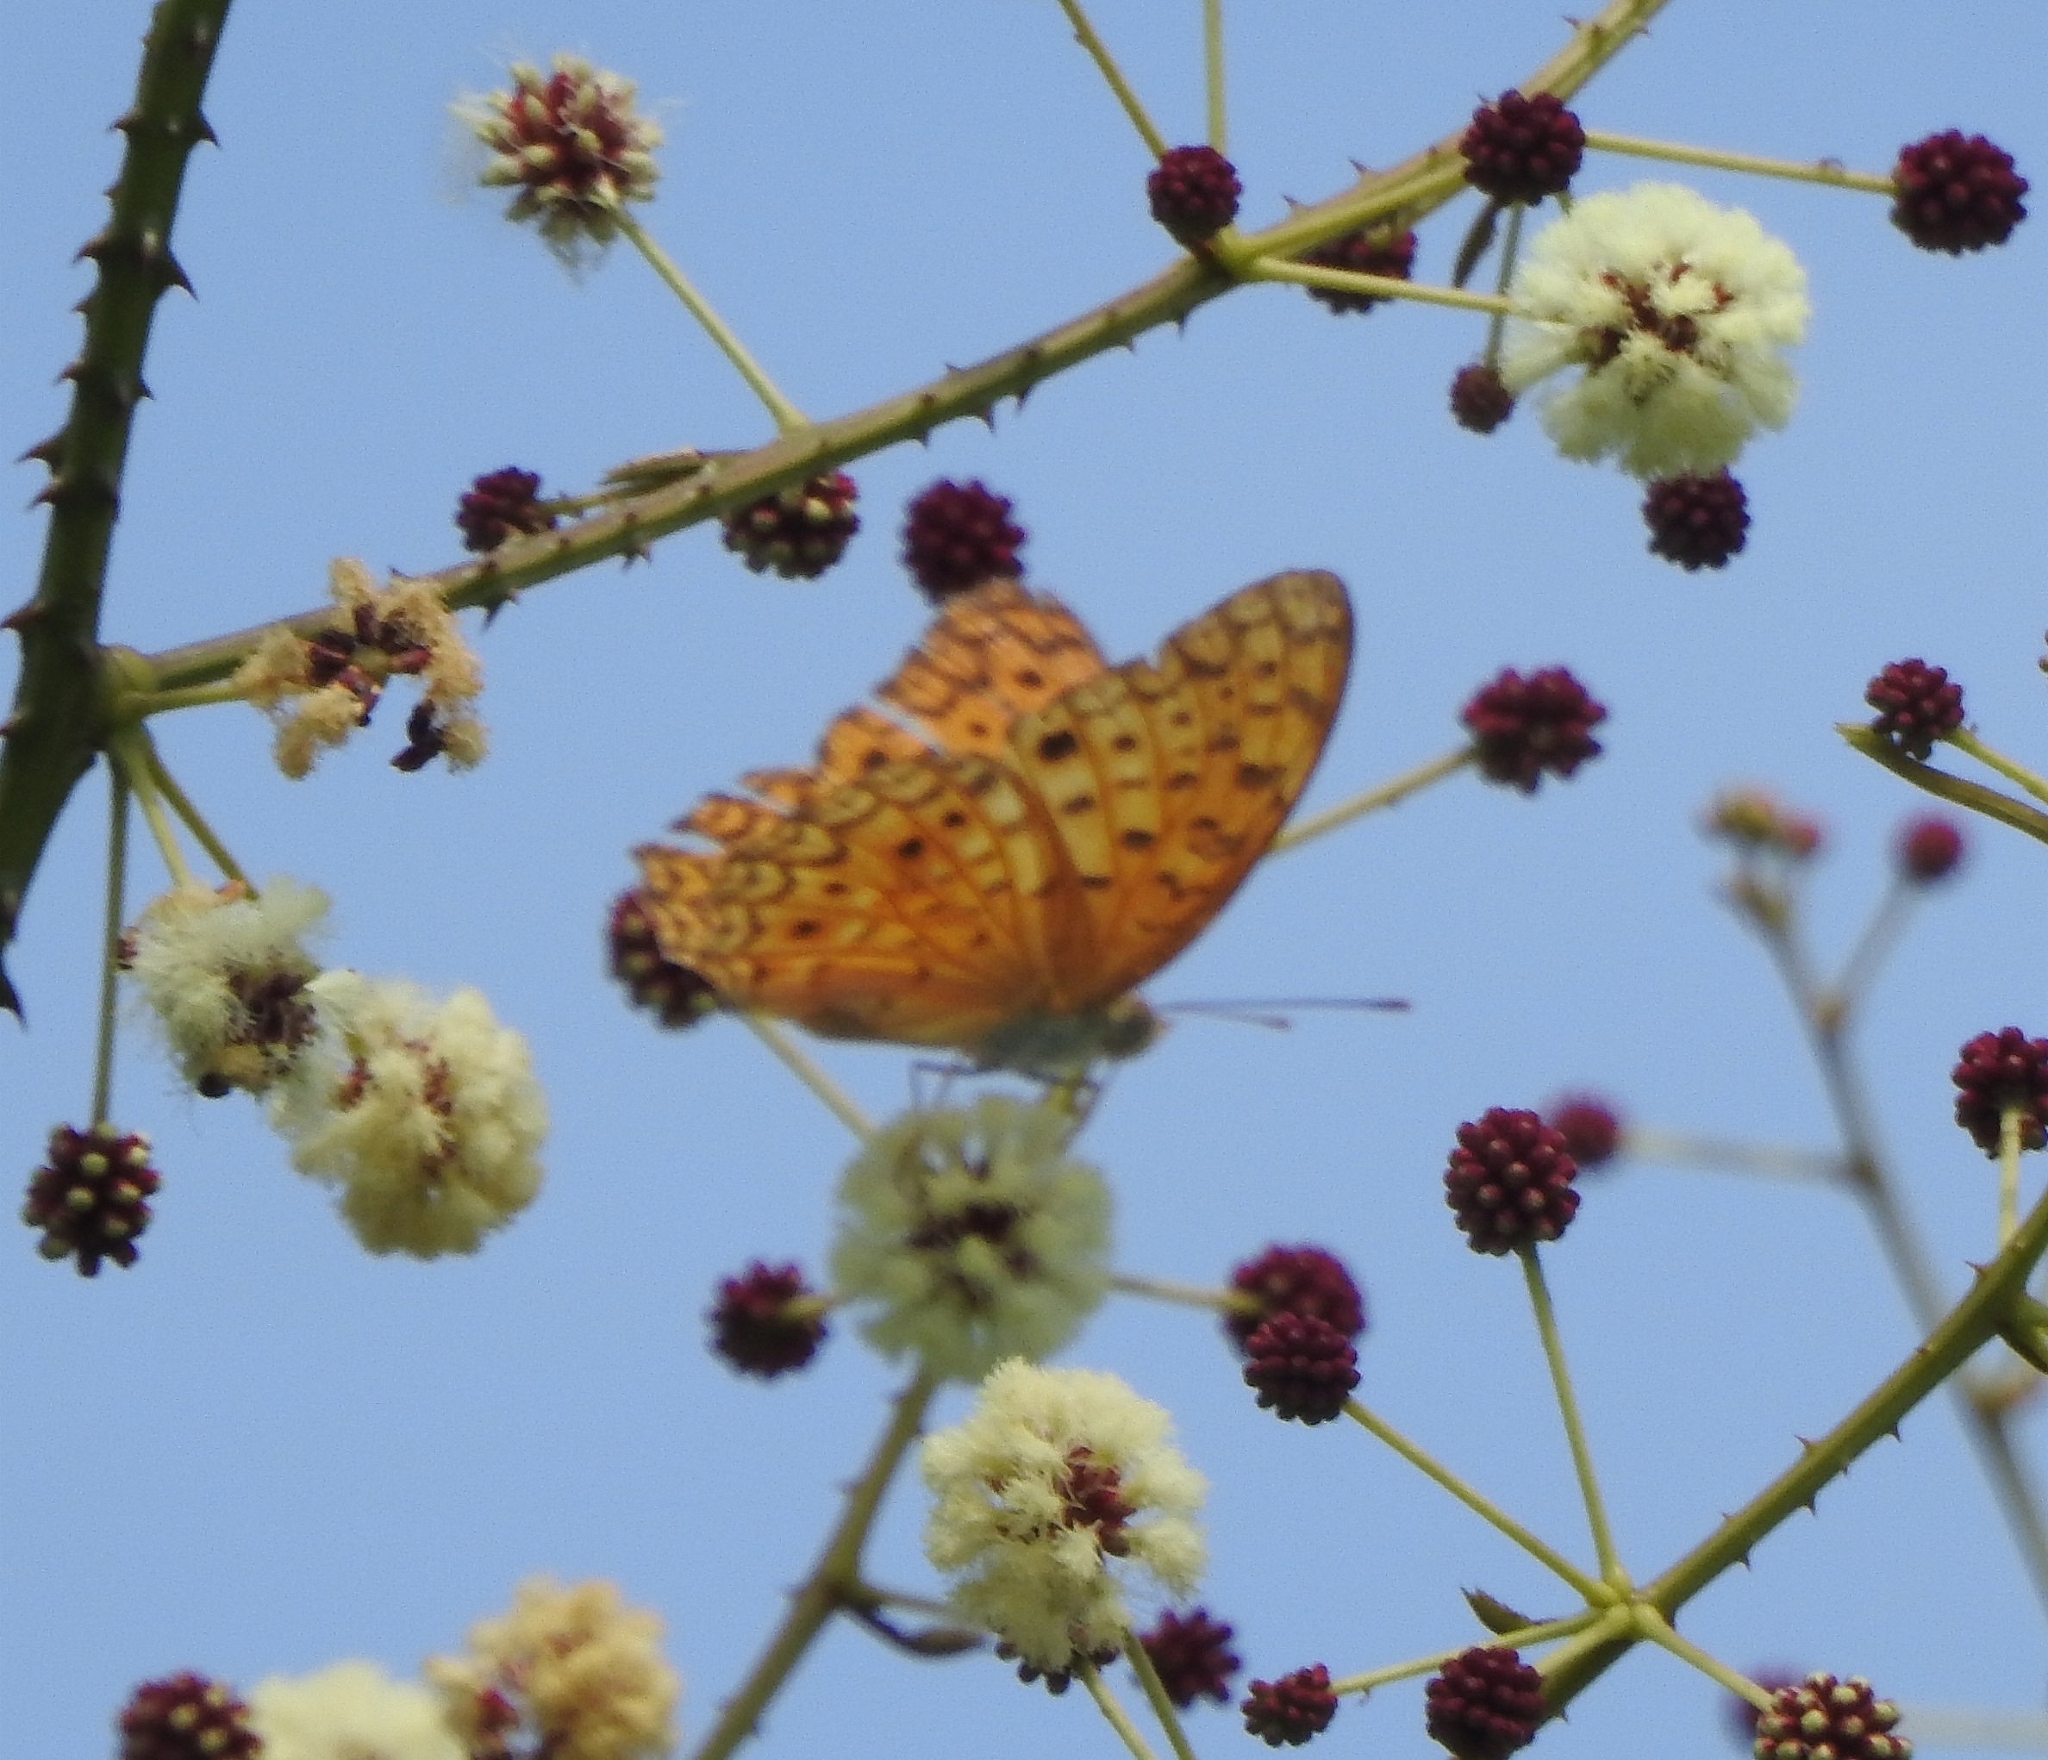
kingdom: Animalia
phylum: Arthropoda
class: Insecta
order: Lepidoptera
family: Nymphalidae
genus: Phalanta
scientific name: Phalanta phalantha
